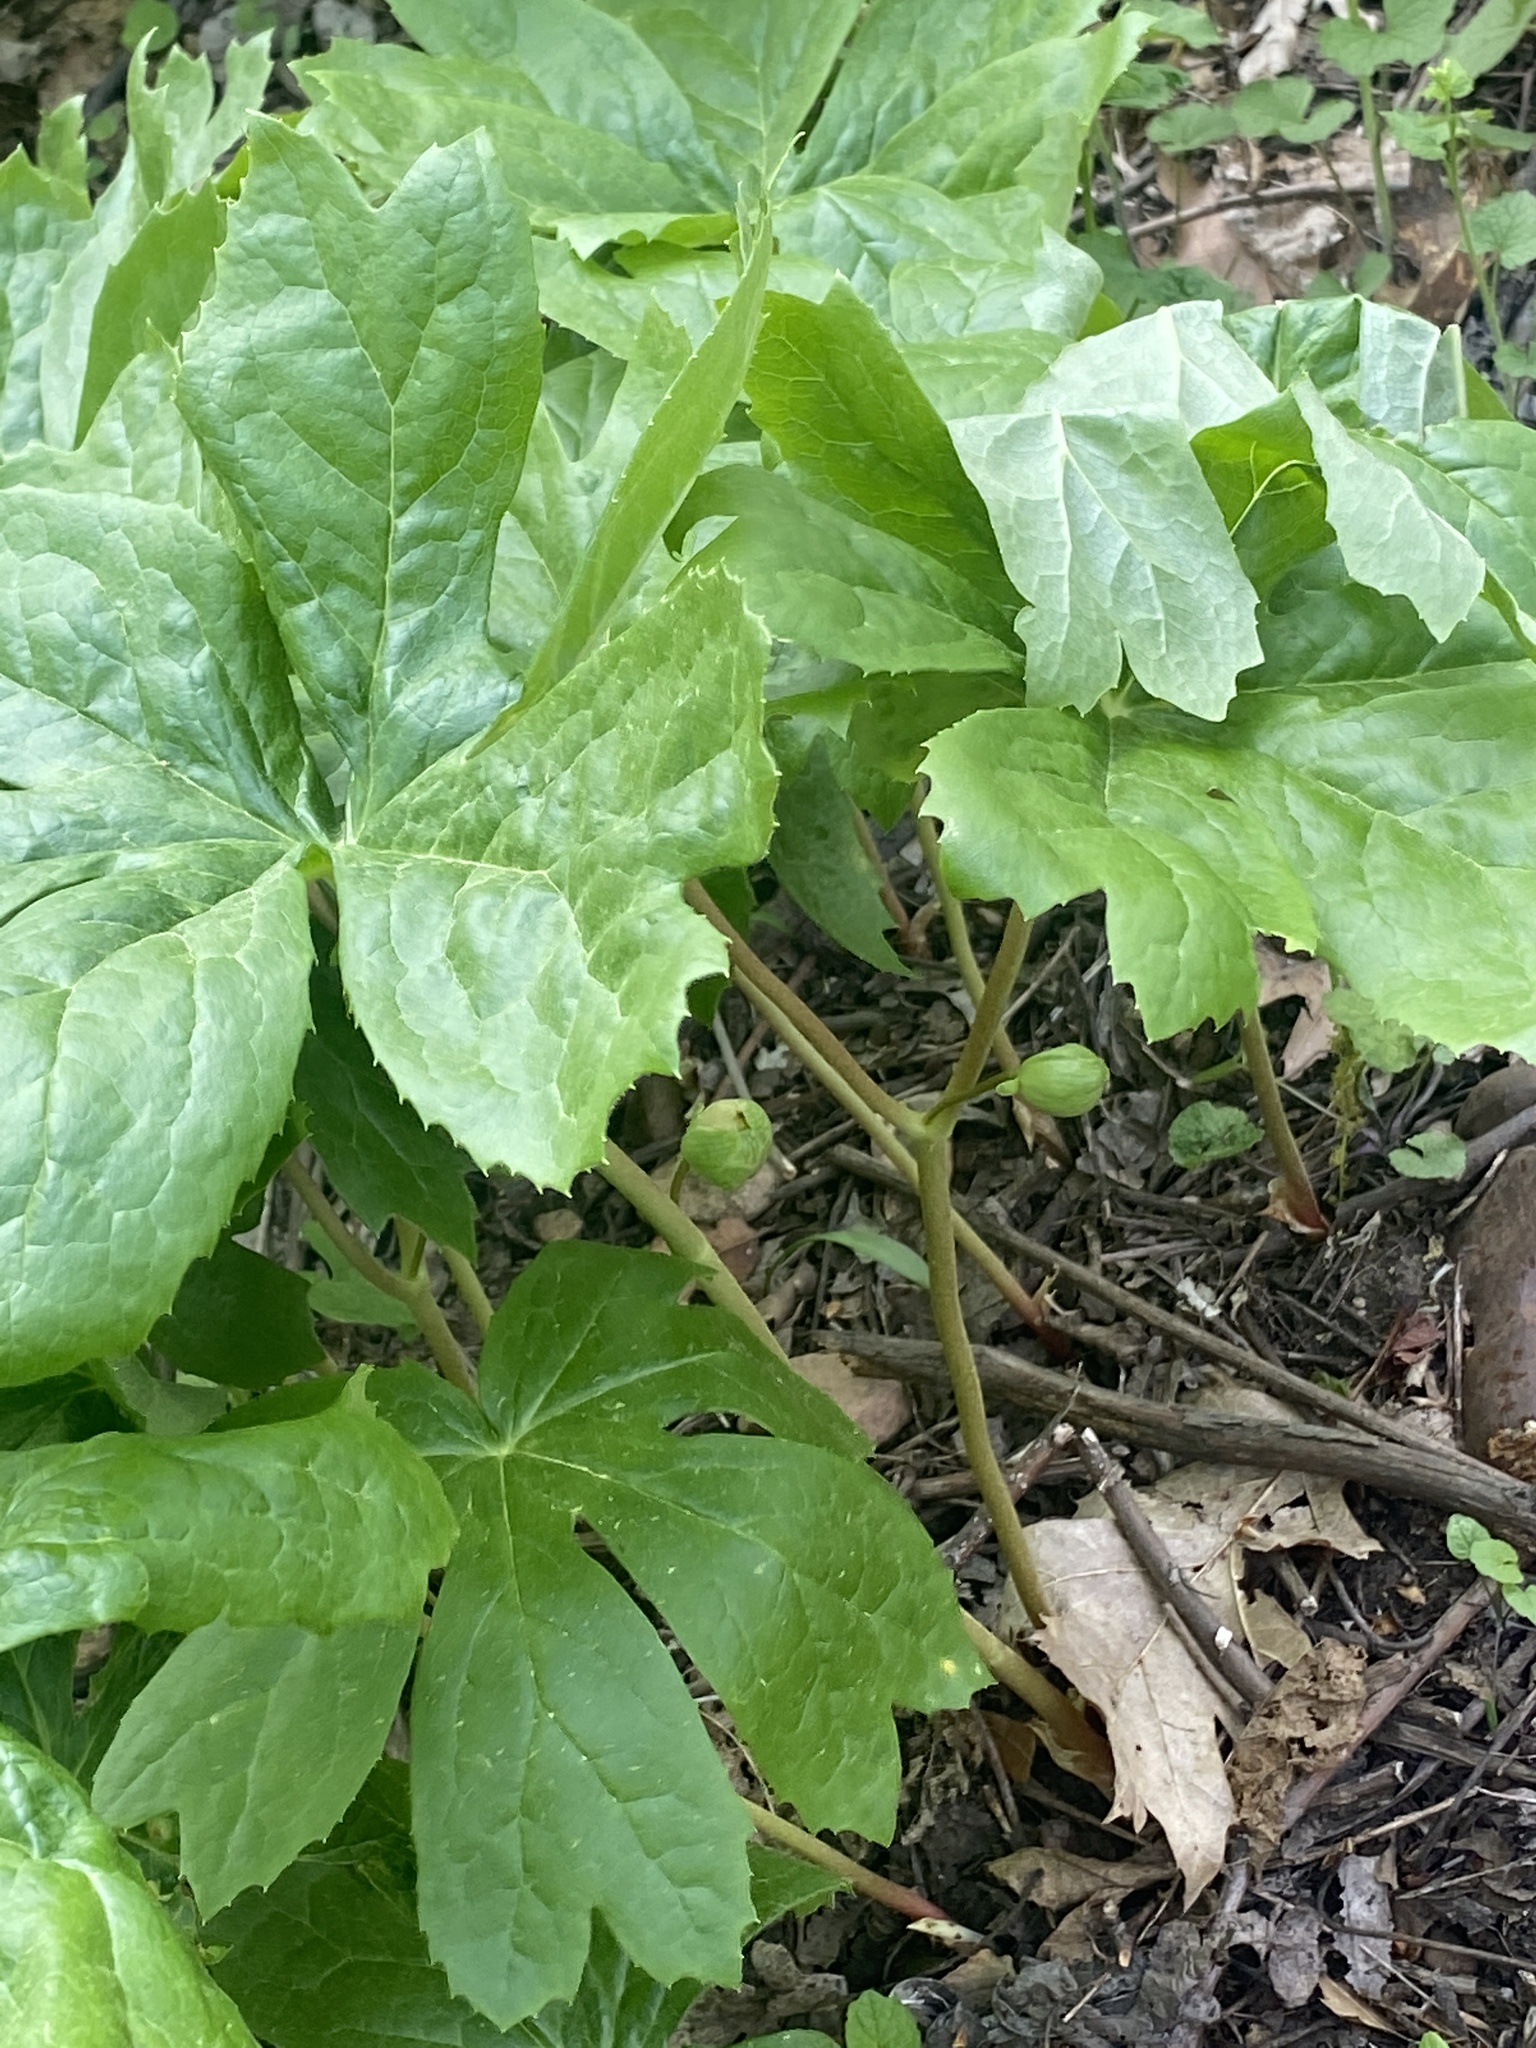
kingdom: Plantae
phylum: Tracheophyta
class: Magnoliopsida
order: Ranunculales
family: Berberidaceae
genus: Podophyllum
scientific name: Podophyllum peltatum
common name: Wild mandrake
